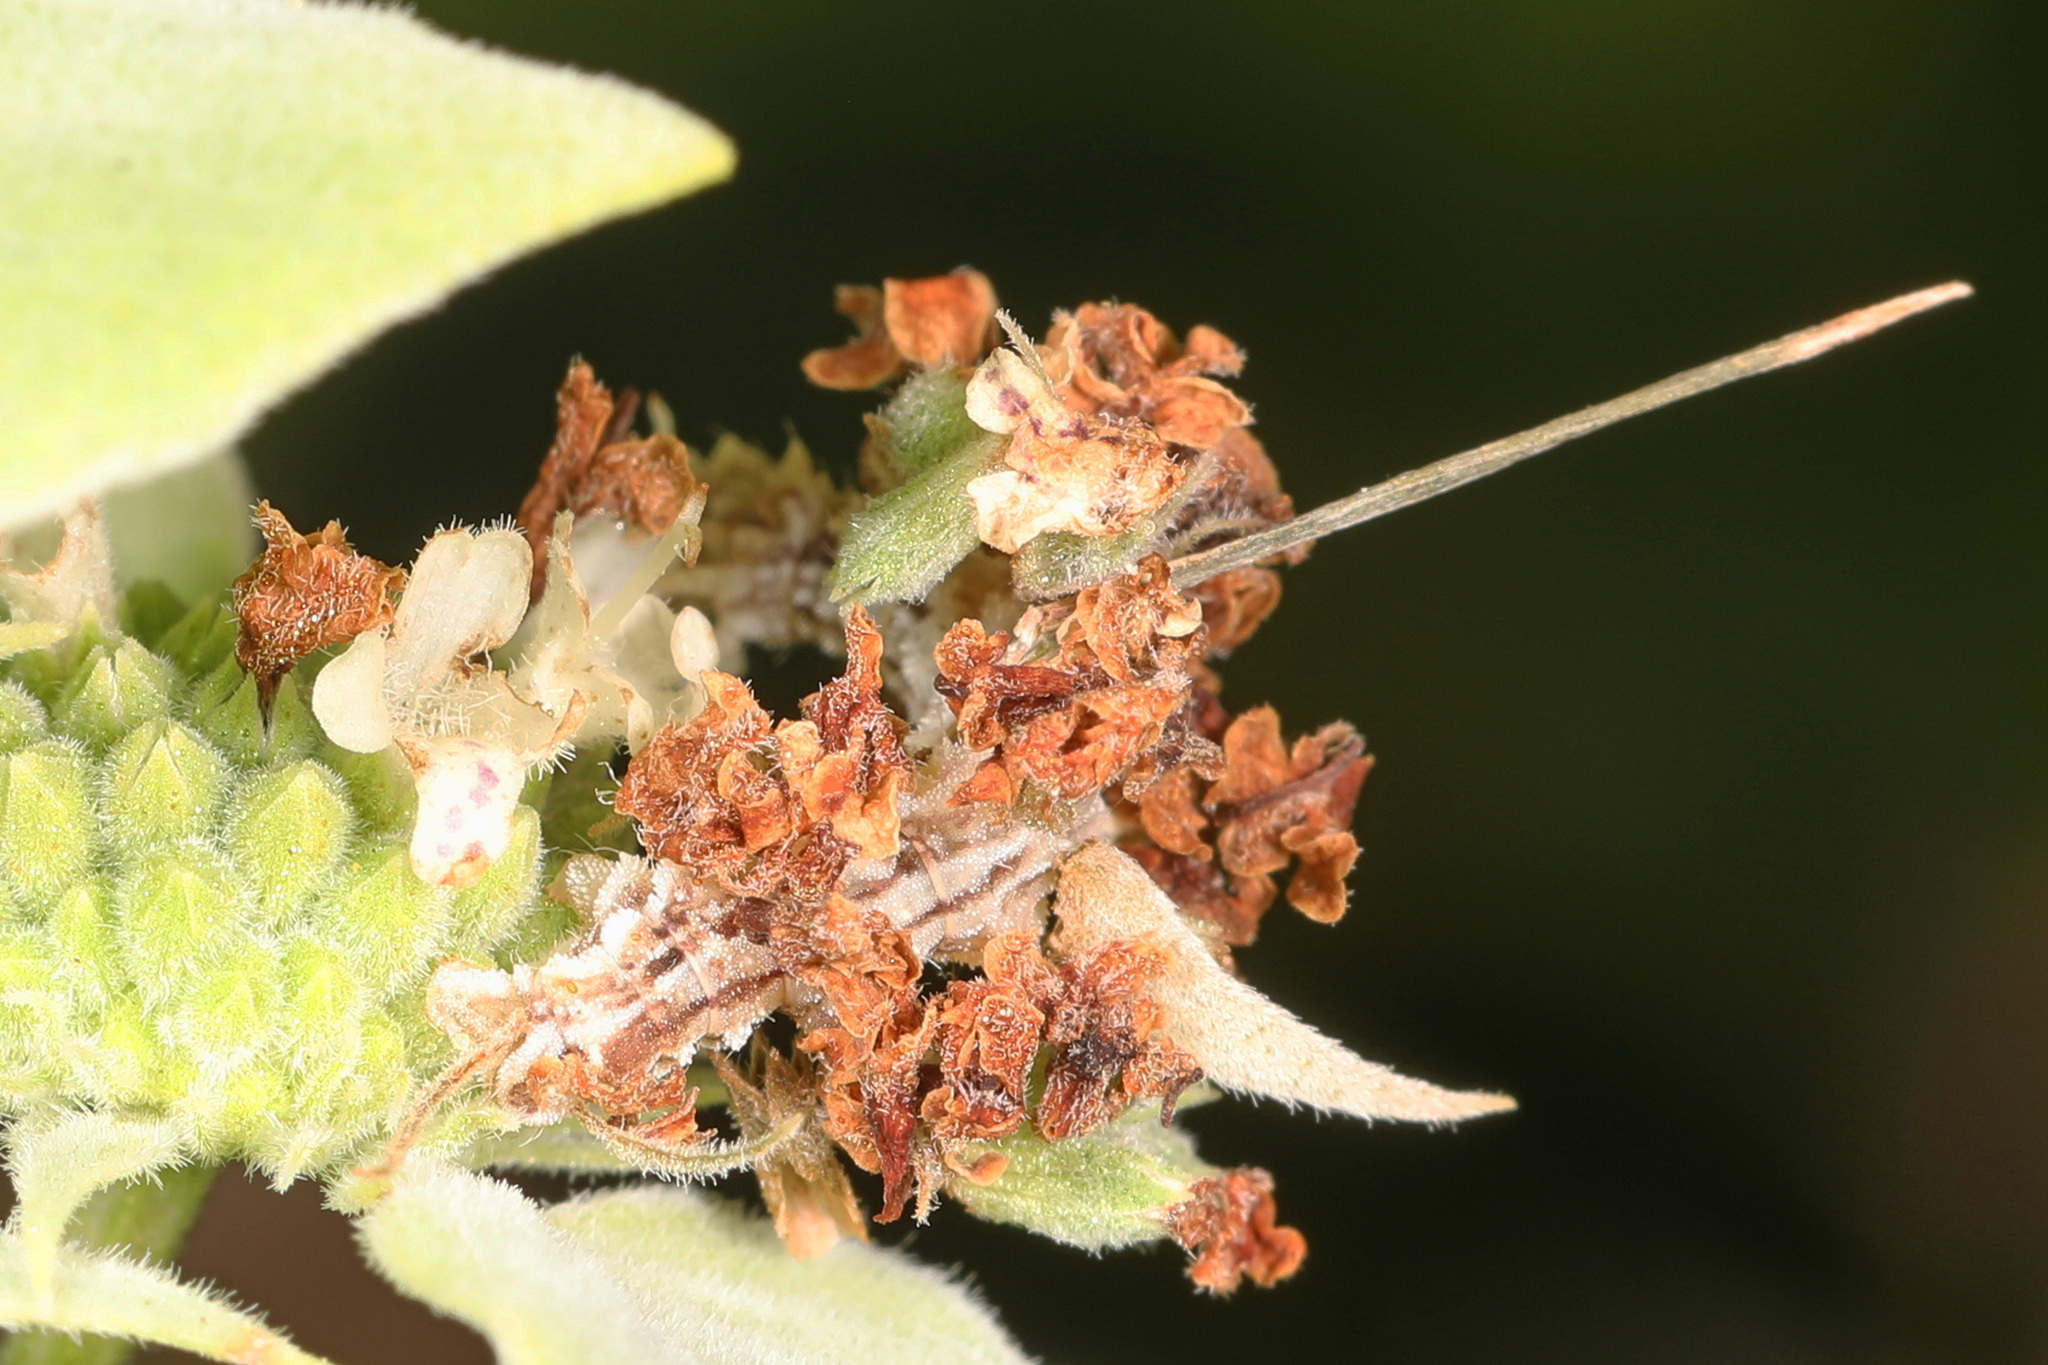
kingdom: Animalia
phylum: Arthropoda
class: Insecta
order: Lepidoptera
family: Geometridae
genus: Synchlora
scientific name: Synchlora aerata
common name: Wavy-lined emerald
